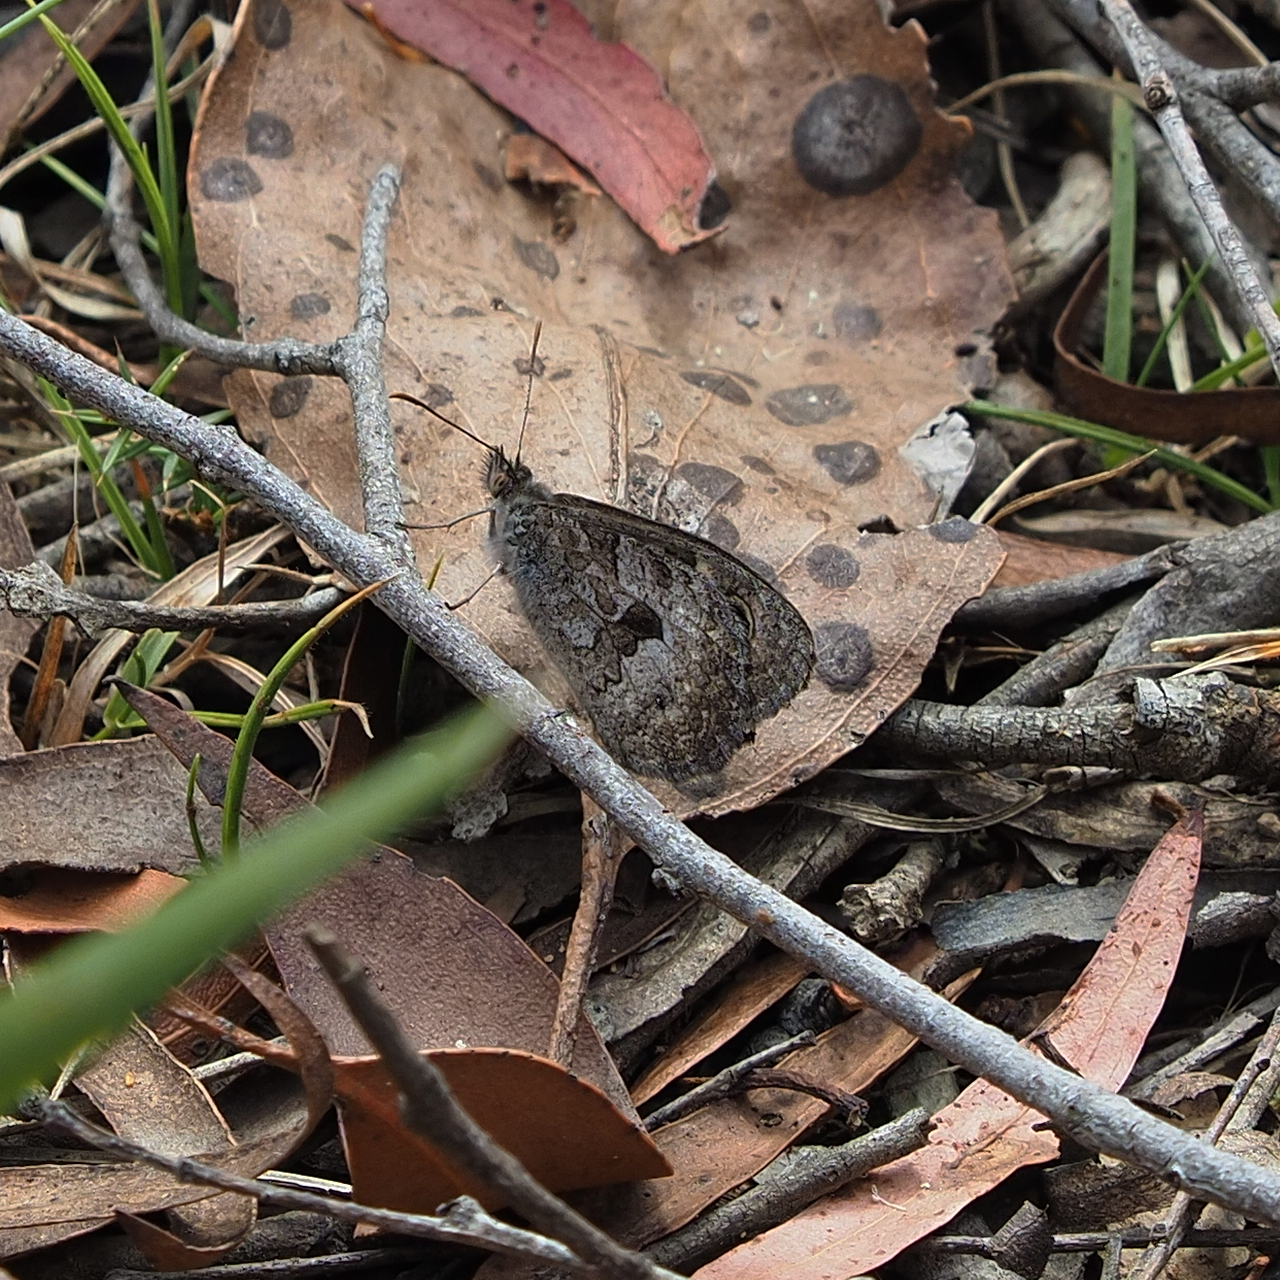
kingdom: Animalia
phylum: Arthropoda
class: Insecta
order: Lepidoptera
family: Nymphalidae
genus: Geitoneura
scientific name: Geitoneura klugii
